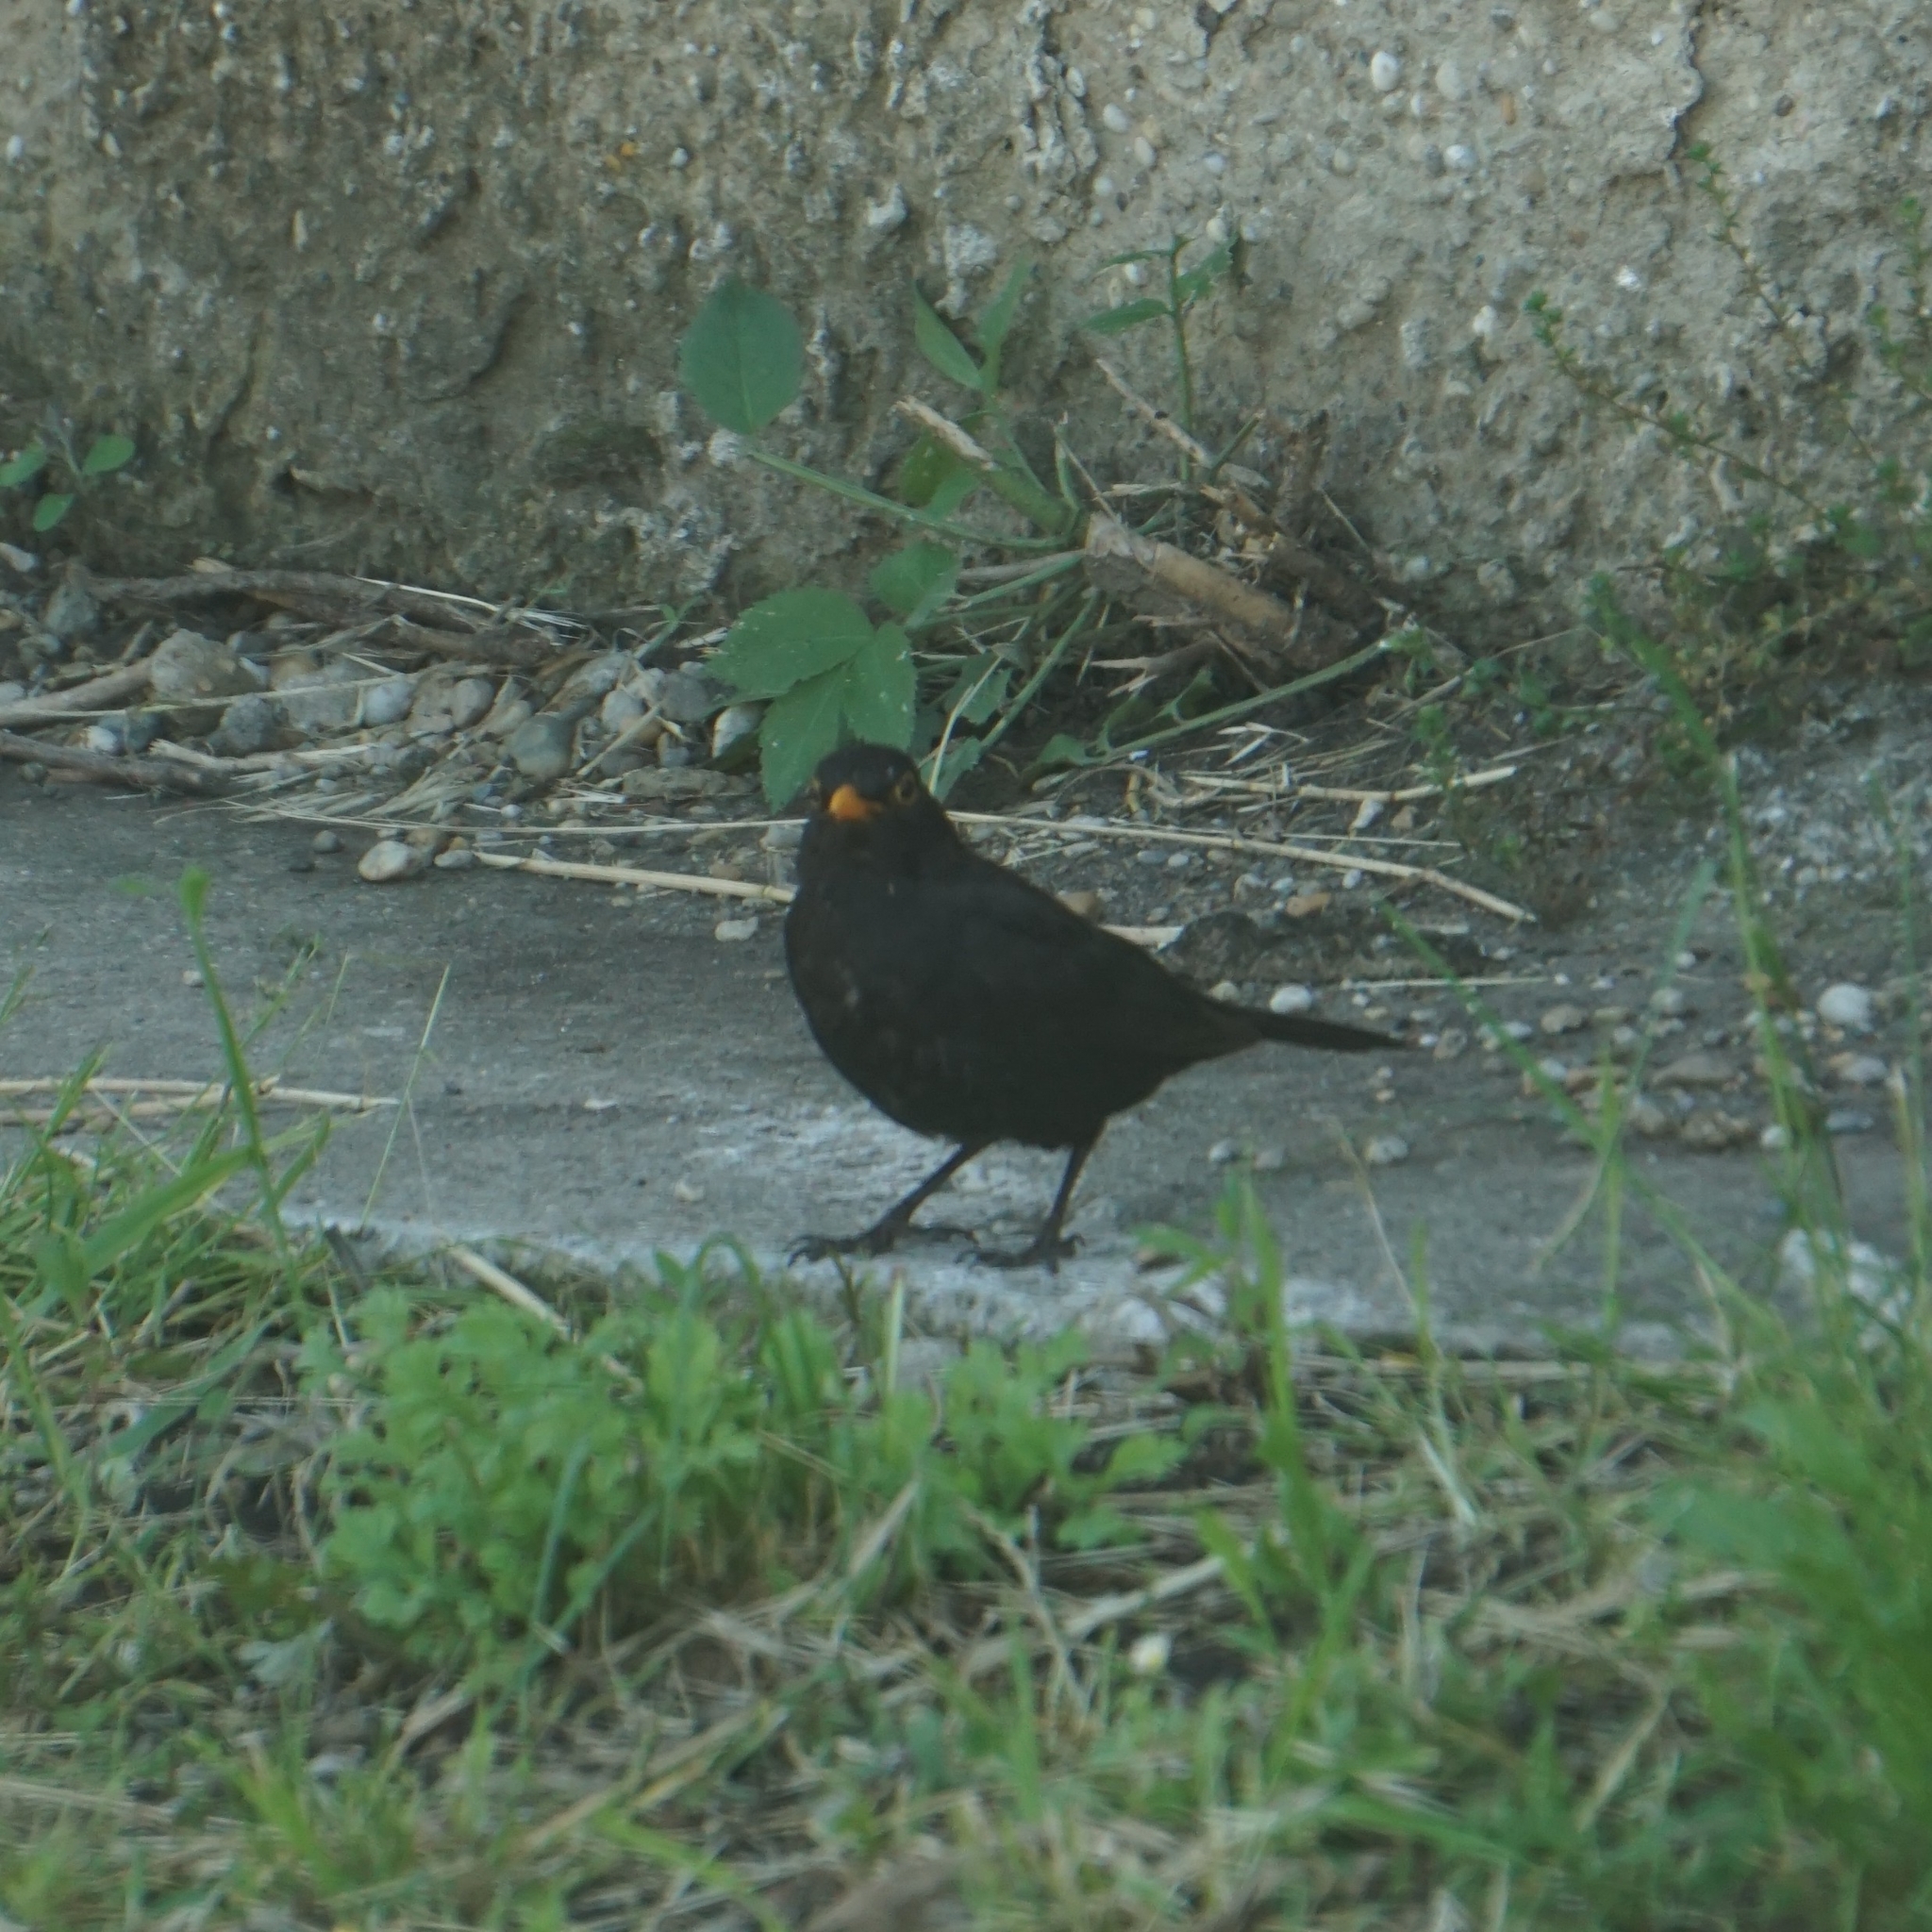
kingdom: Animalia
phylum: Chordata
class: Aves
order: Passeriformes
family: Turdidae
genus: Turdus
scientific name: Turdus merula
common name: Common blackbird
